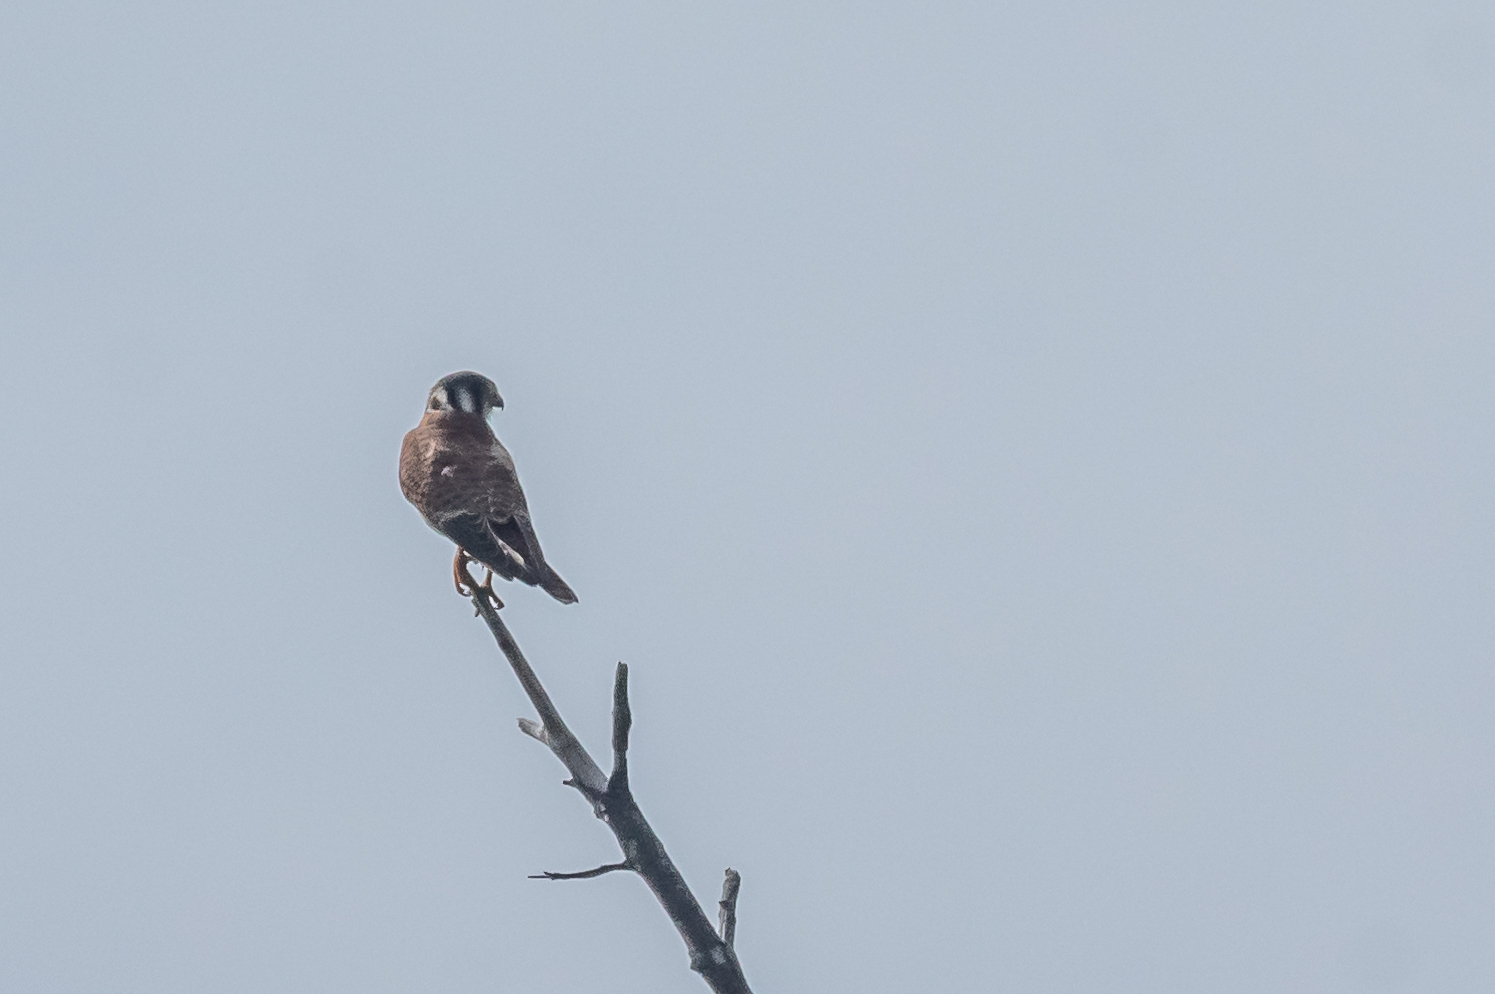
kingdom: Animalia
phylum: Chordata
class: Aves
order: Falconiformes
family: Falconidae
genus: Falco
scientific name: Falco sparverius
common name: American kestrel
